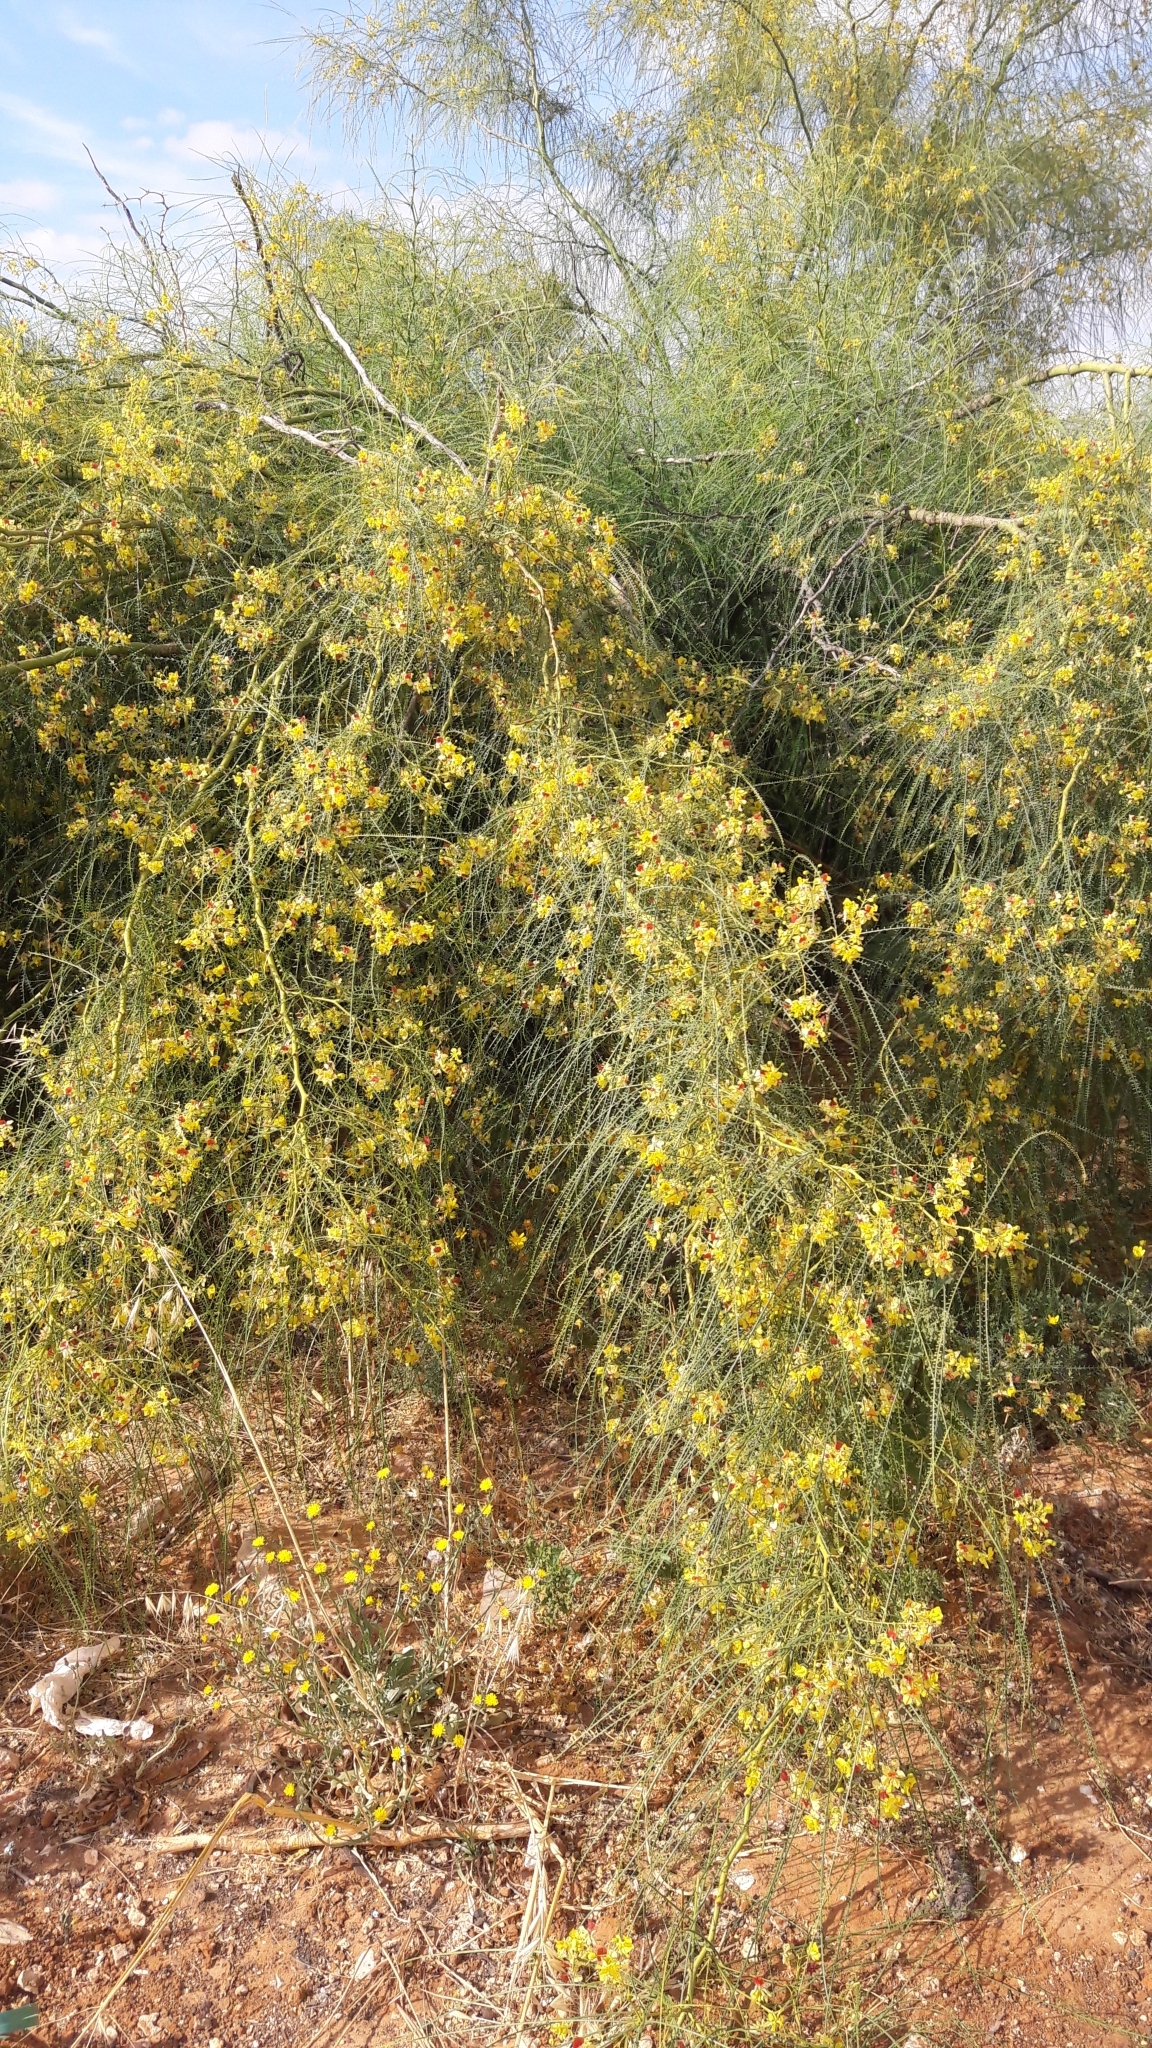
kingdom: Plantae
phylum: Tracheophyta
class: Magnoliopsida
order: Fabales
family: Fabaceae
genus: Parkinsonia
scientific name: Parkinsonia aculeata
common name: Jerusalem thorn
